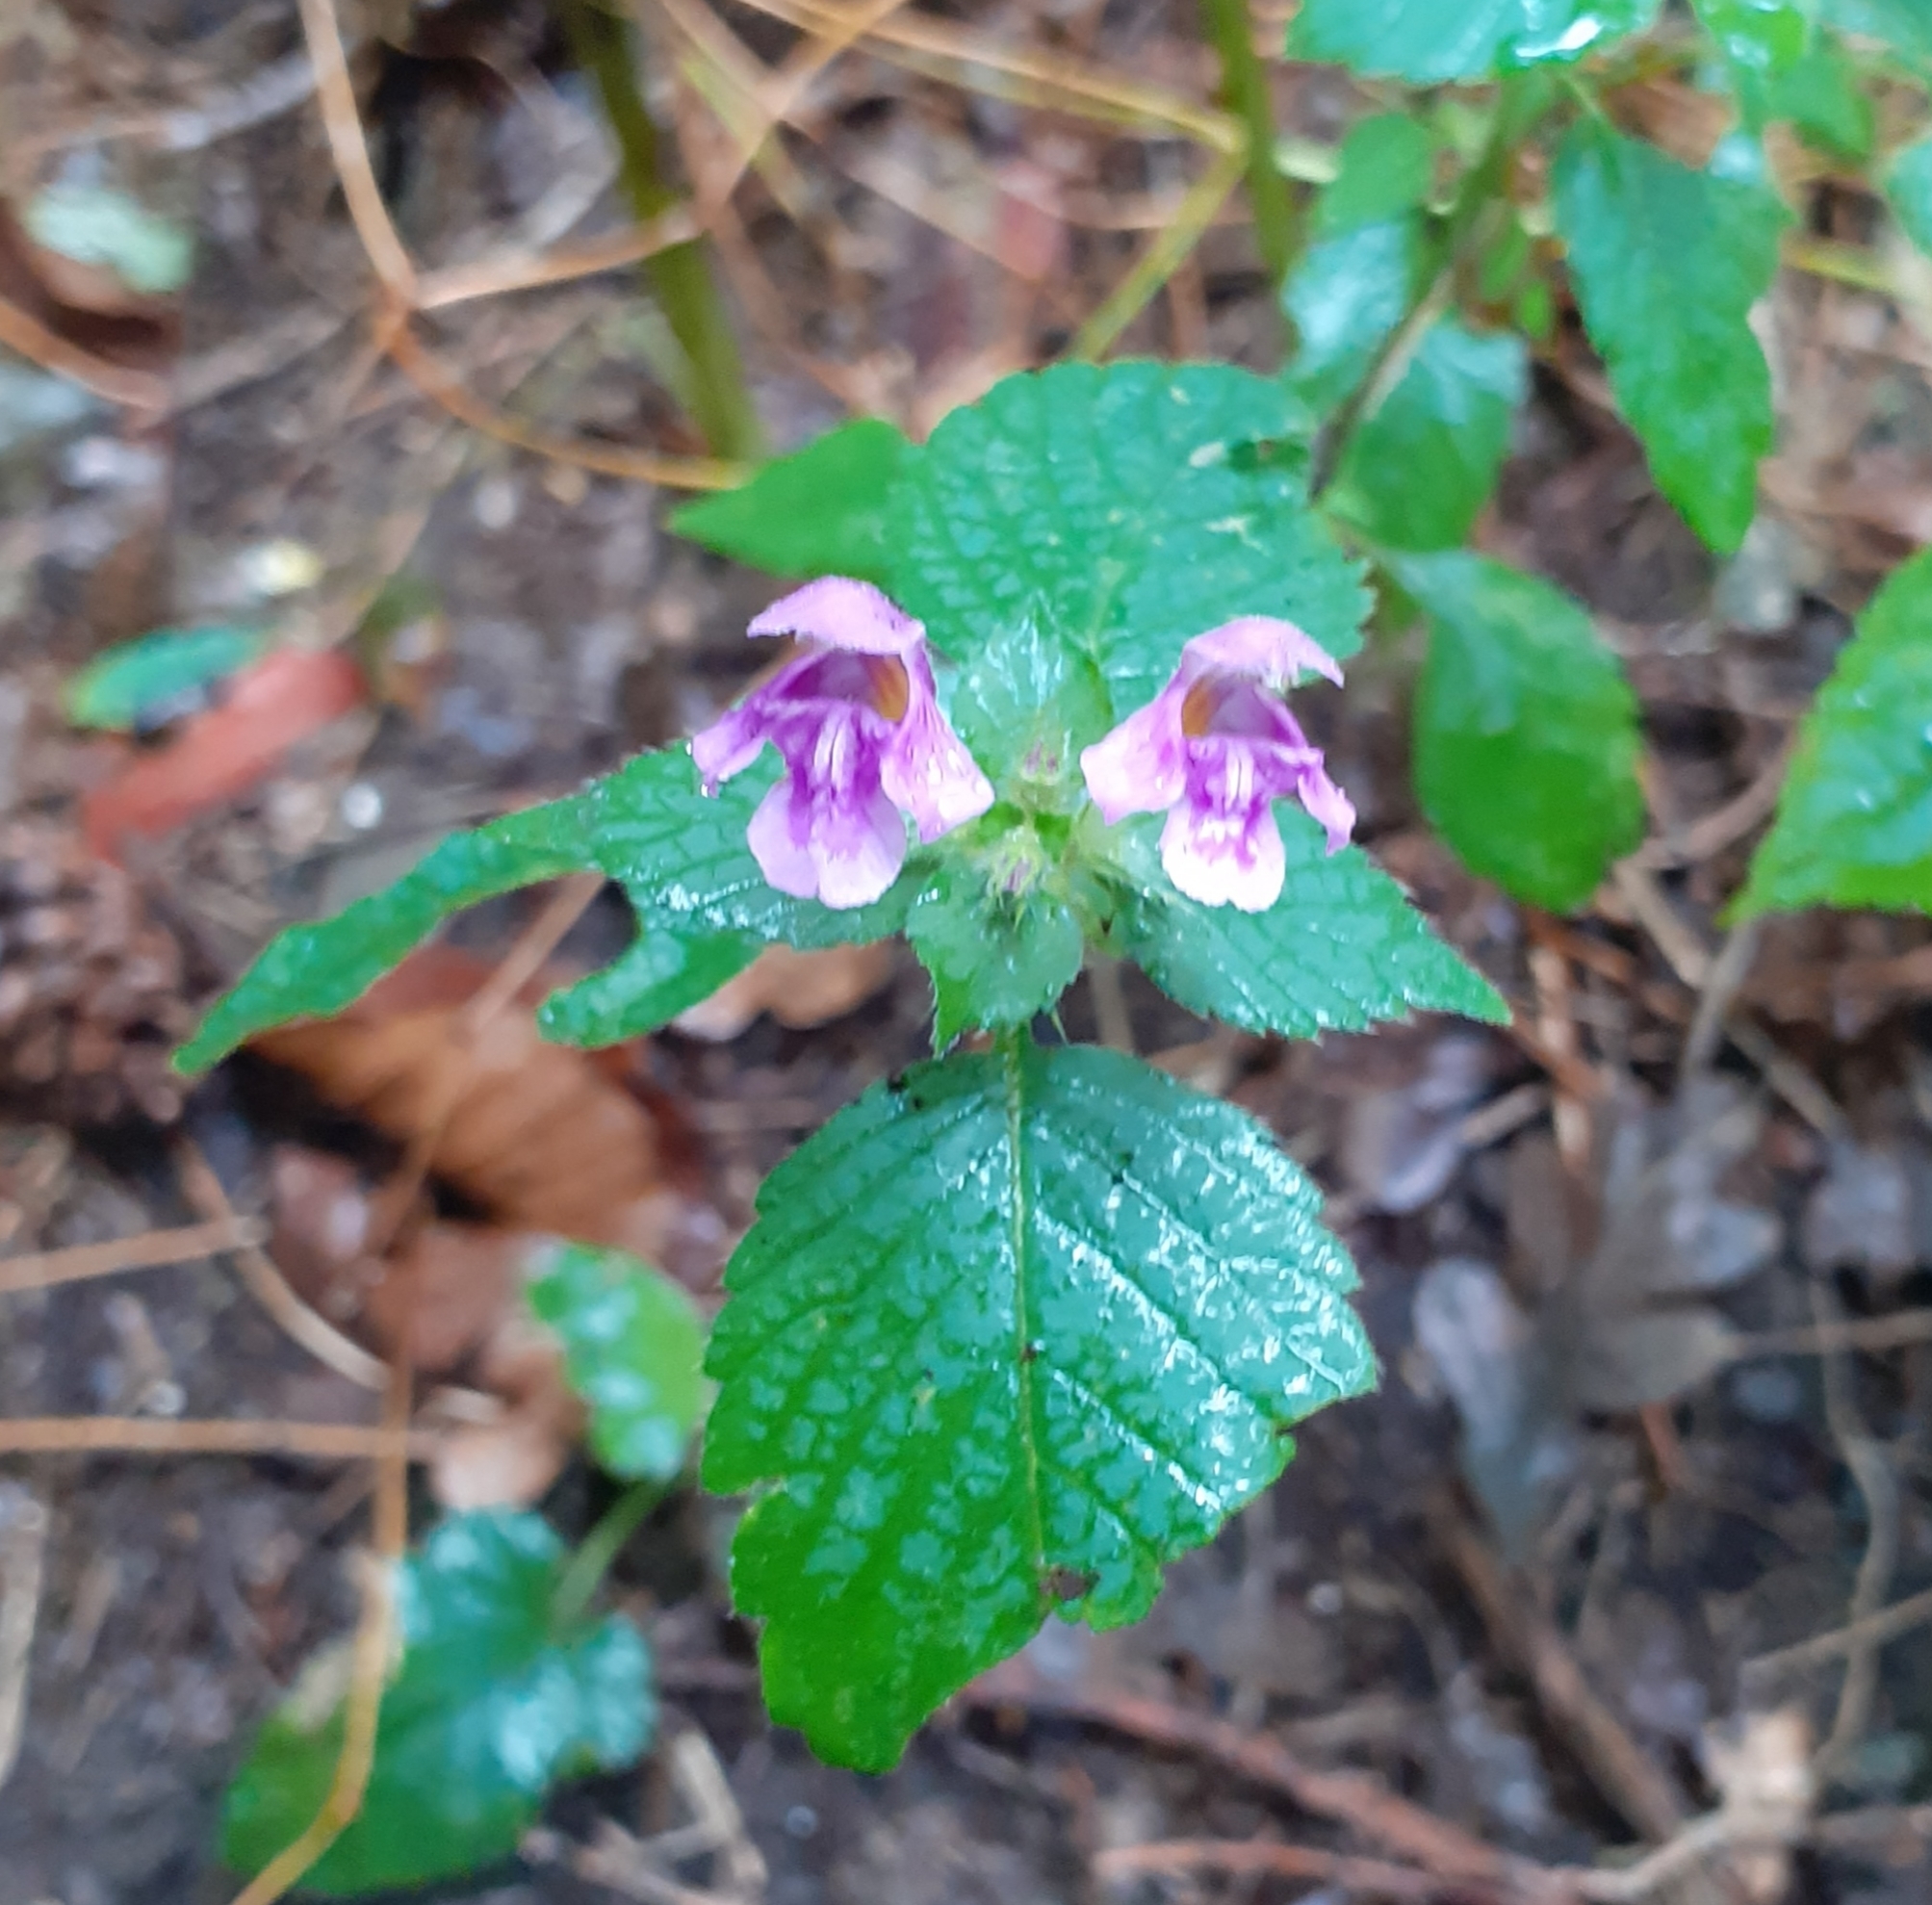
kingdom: Plantae
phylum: Tracheophyta
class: Magnoliopsida
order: Lamiales
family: Lamiaceae
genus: Galeopsis
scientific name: Galeopsis pubescens
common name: Downy hemp-nettle
